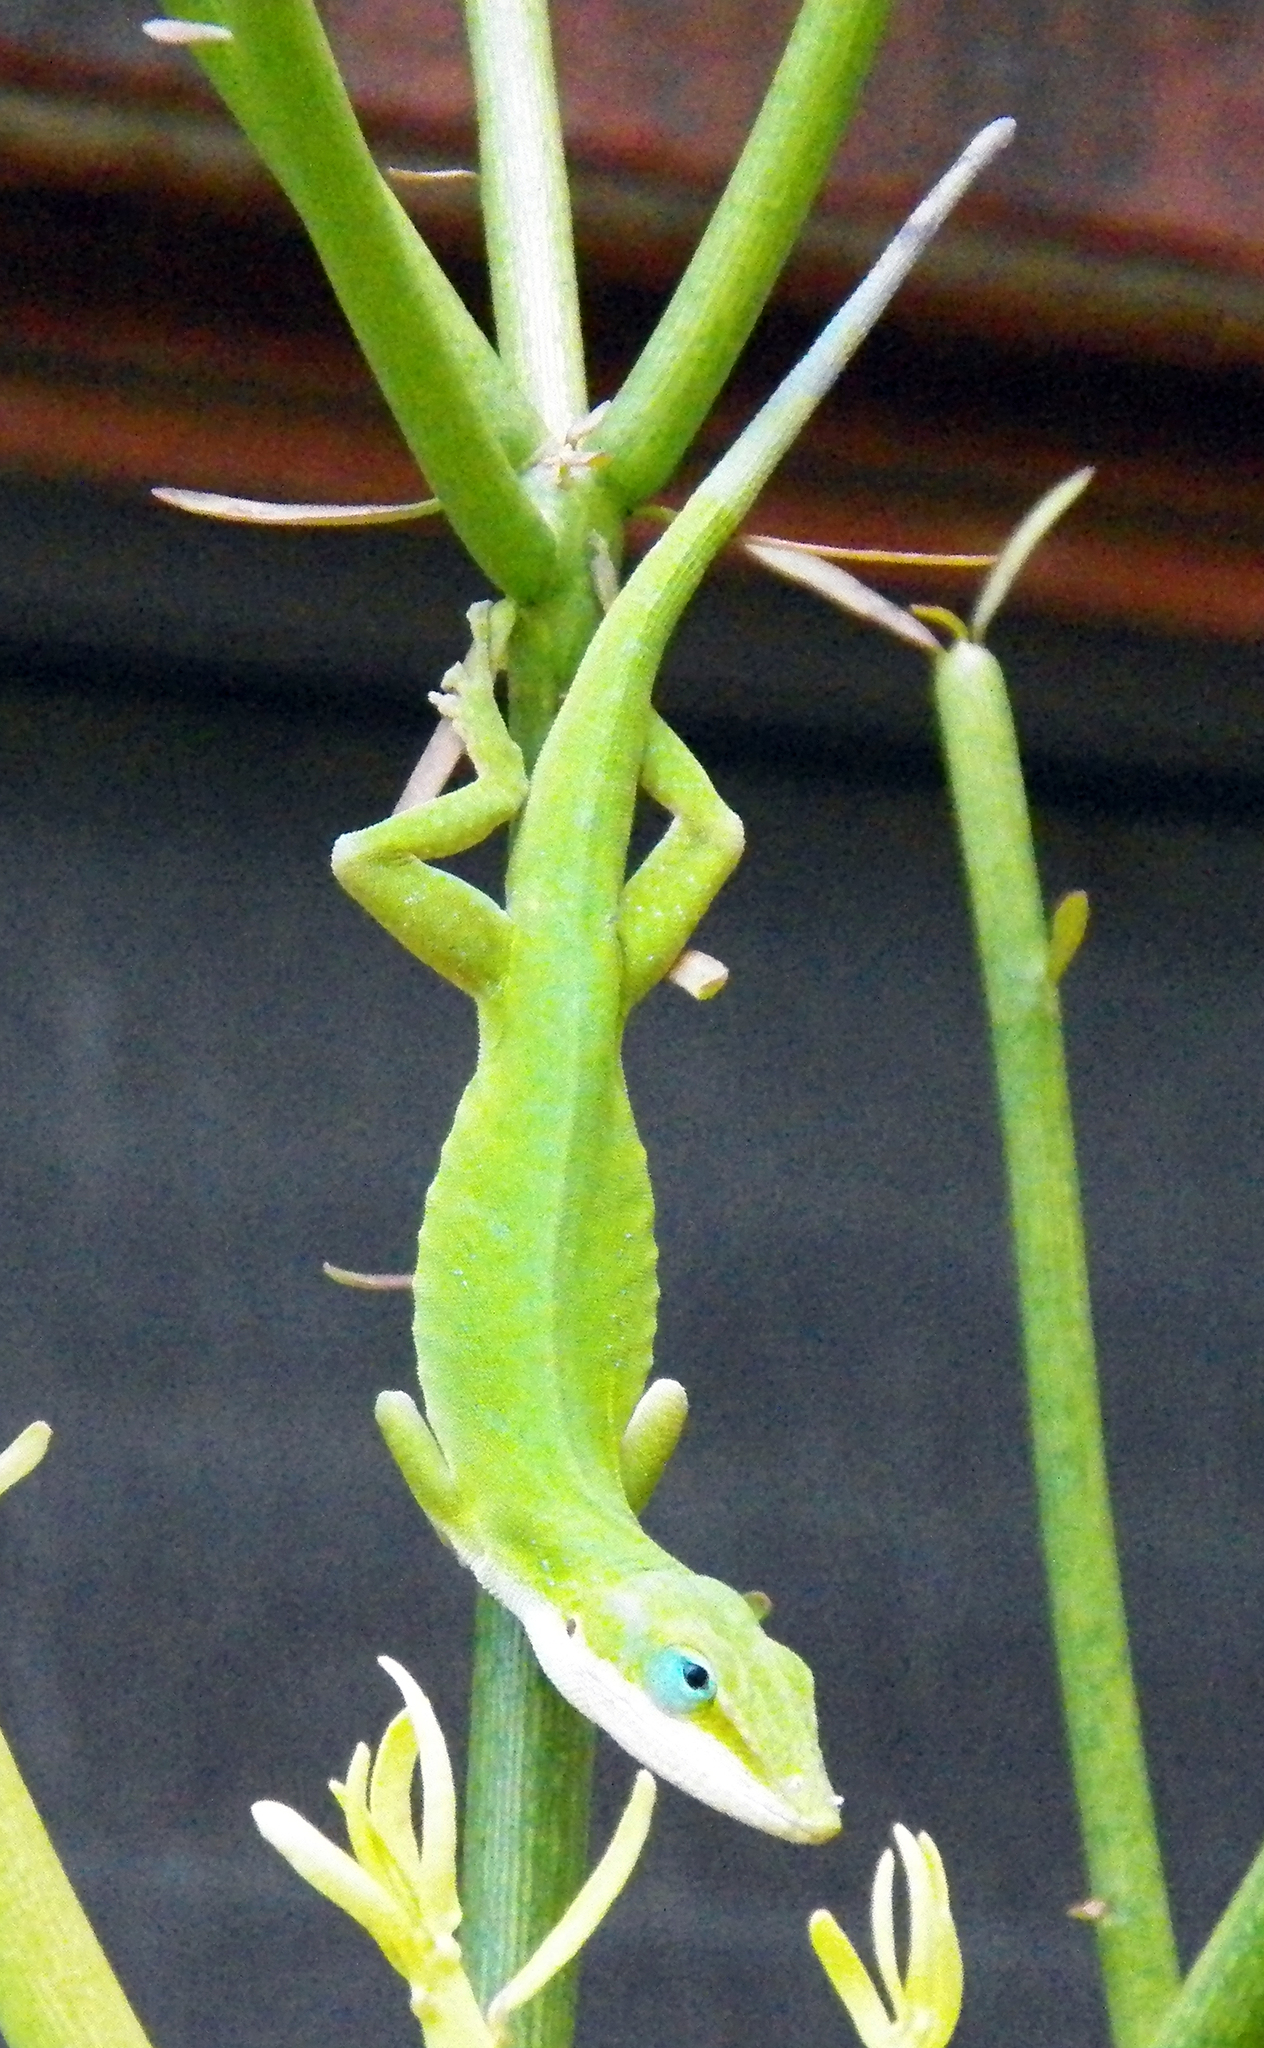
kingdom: Animalia
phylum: Chordata
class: Squamata
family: Dactyloidae
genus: Anolis
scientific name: Anolis carolinensis
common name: Green anole
